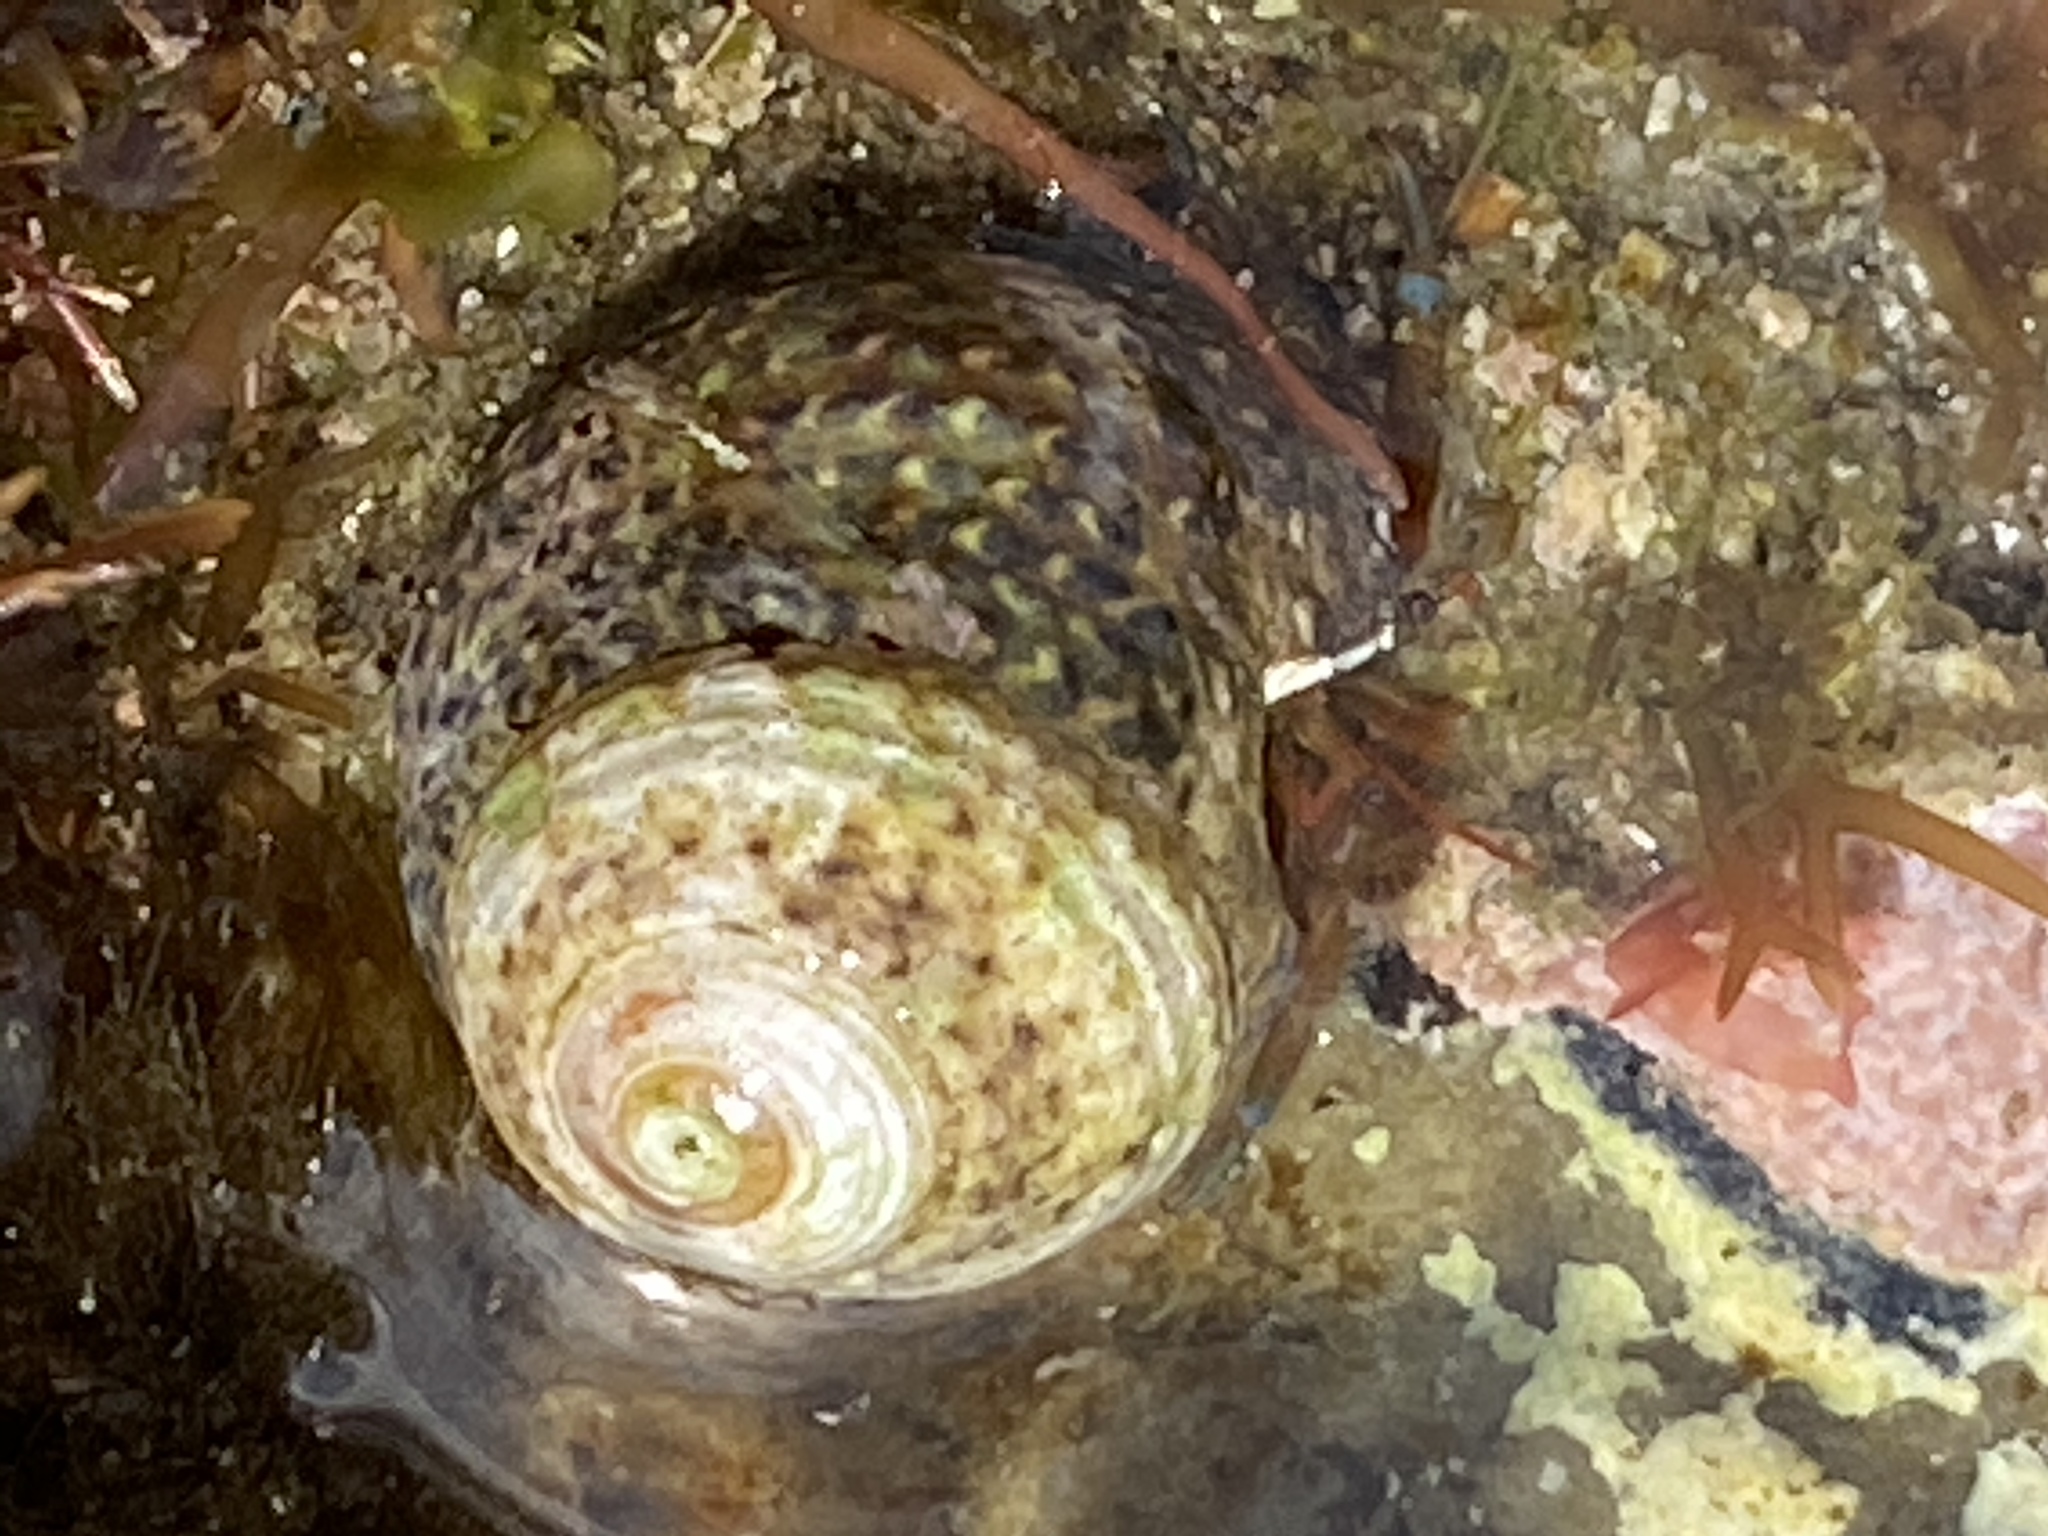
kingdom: Animalia
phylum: Mollusca
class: Gastropoda
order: Trochida
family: Tegulidae
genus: Tegula
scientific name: Tegula eiseni
